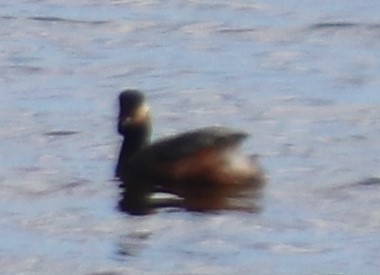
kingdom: Animalia
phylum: Chordata
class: Aves
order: Podicipediformes
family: Podicipedidae
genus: Podiceps
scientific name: Podiceps nigricollis
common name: Black-necked grebe
